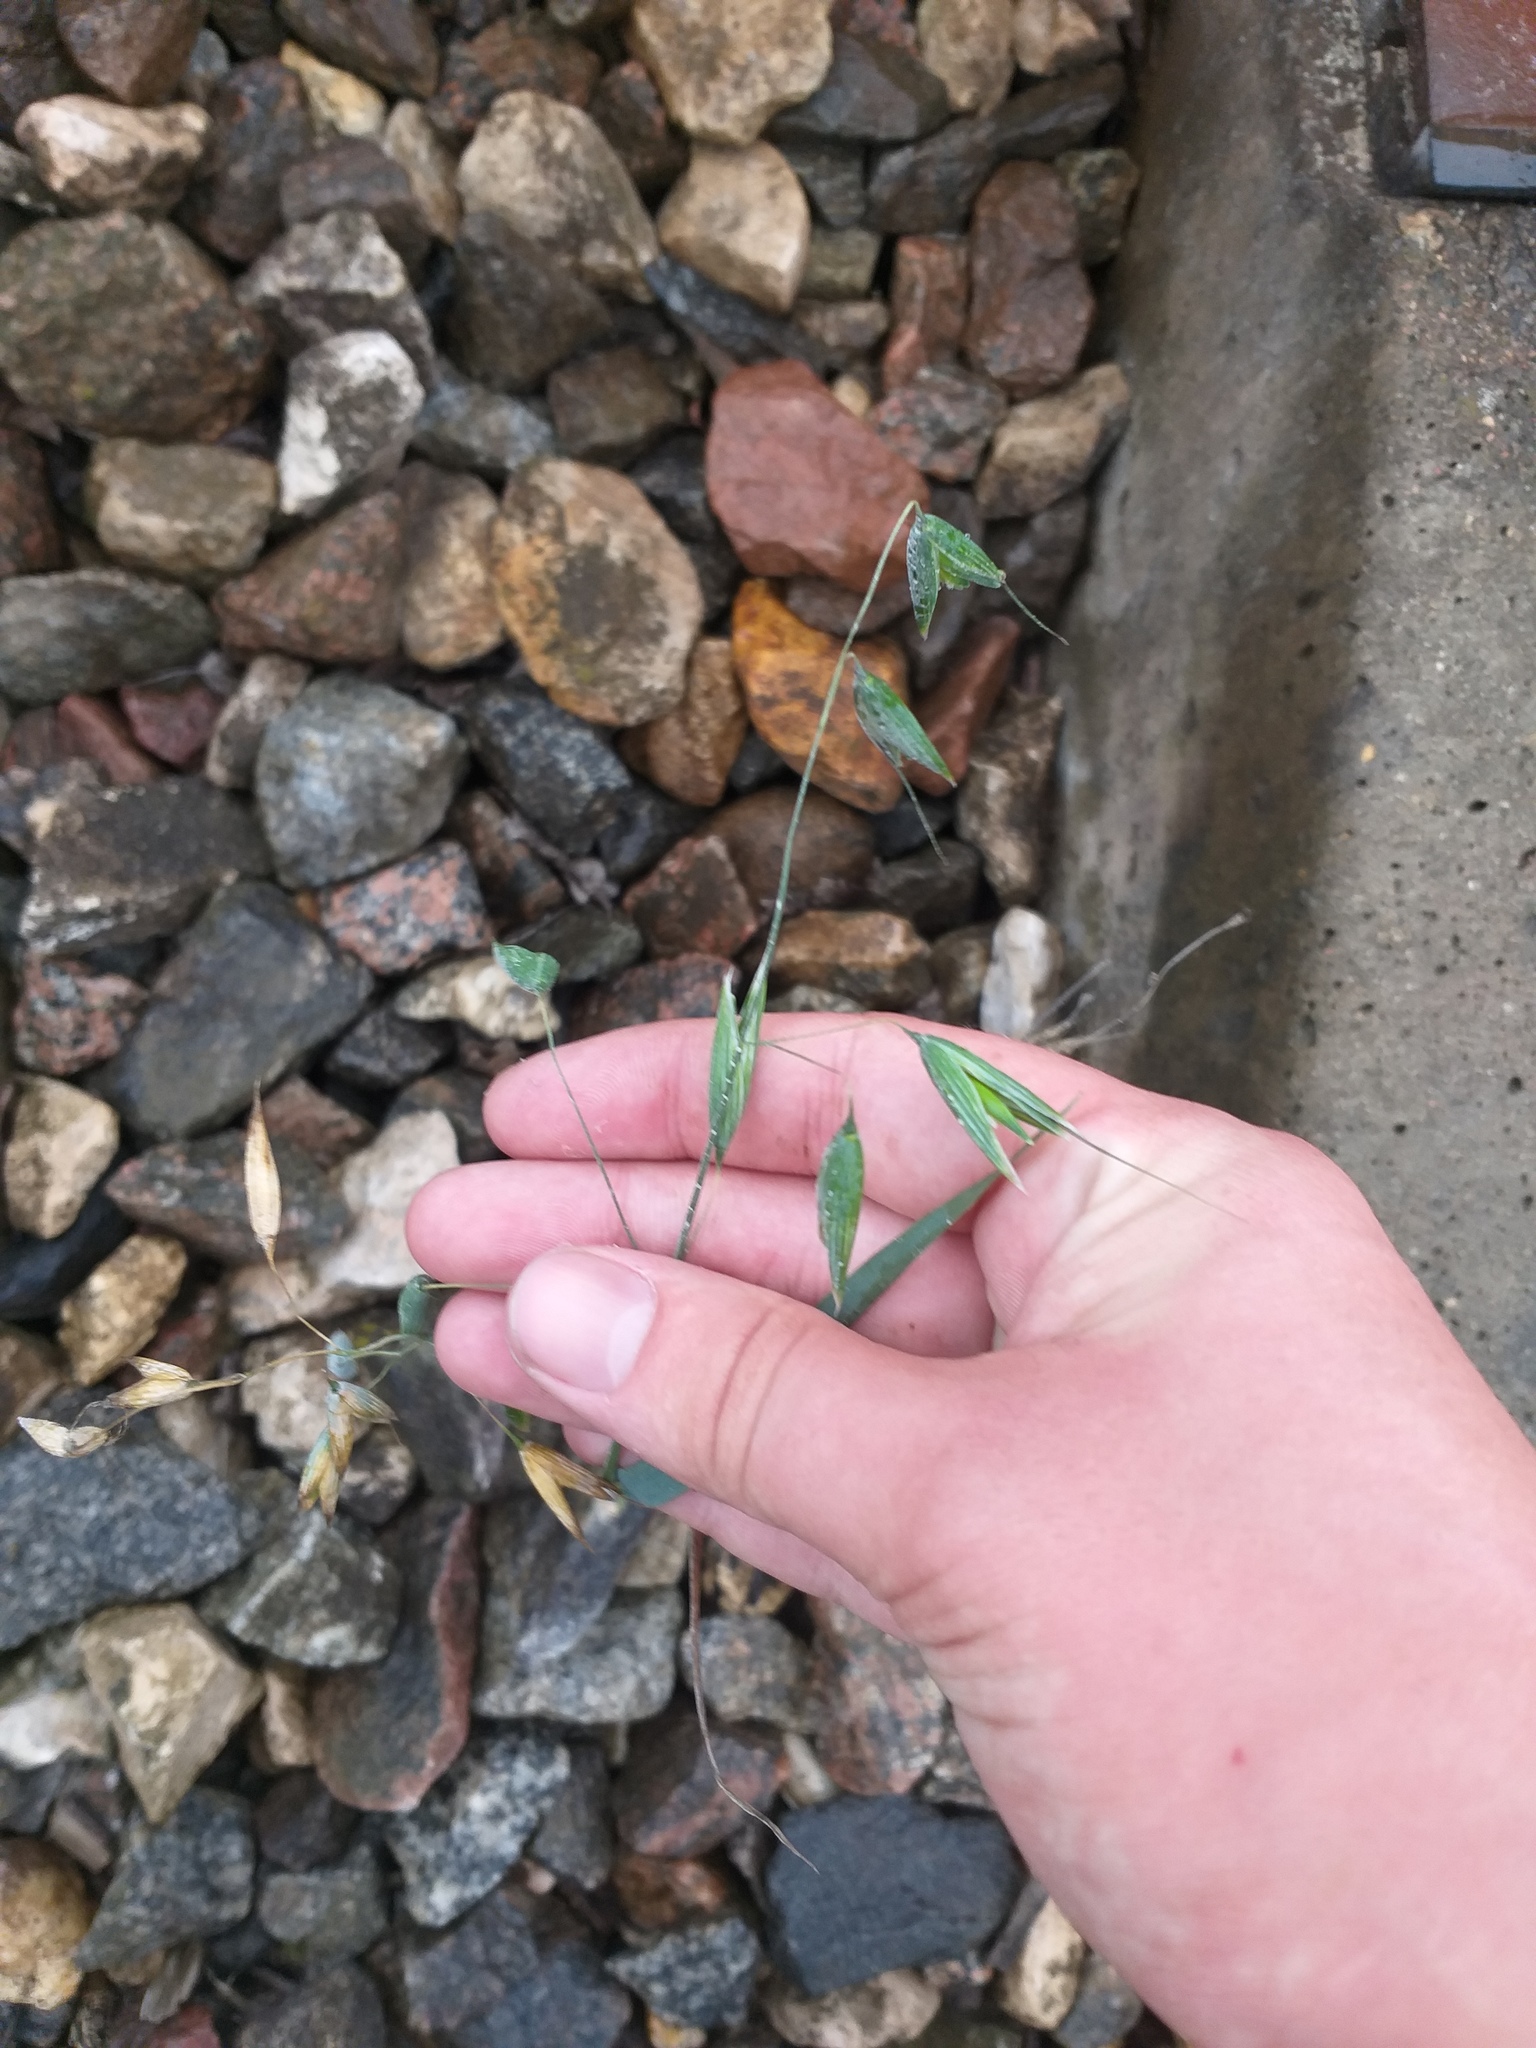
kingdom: Plantae
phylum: Tracheophyta
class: Liliopsida
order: Poales
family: Poaceae
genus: Avena
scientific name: Avena sativa
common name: Oat
